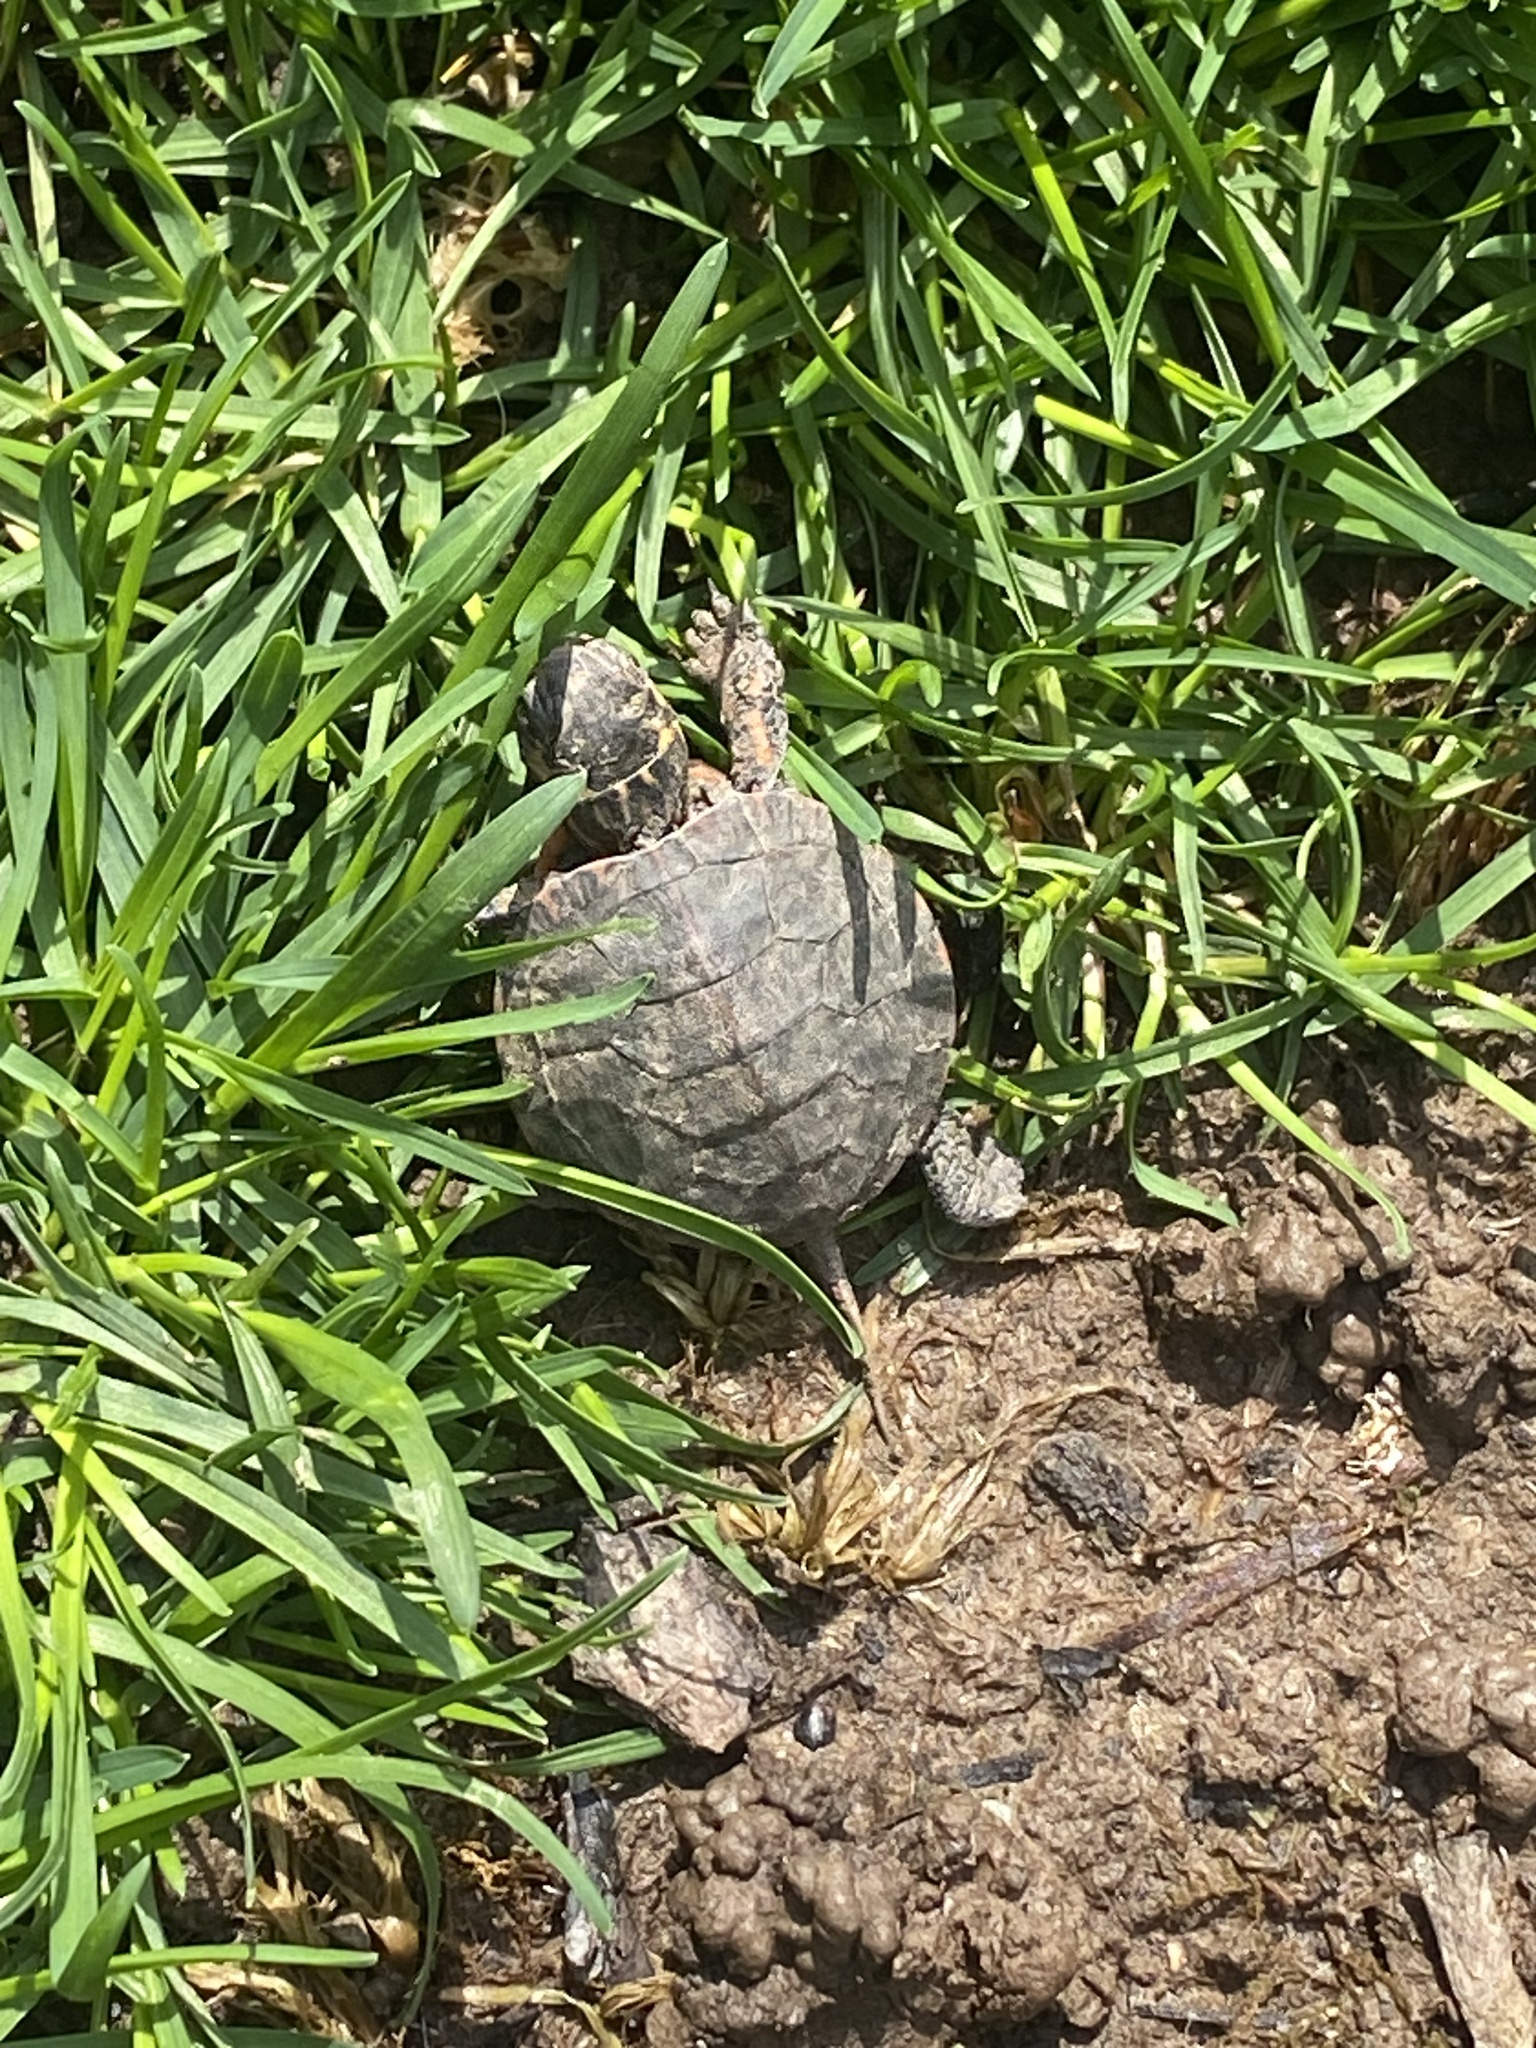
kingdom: Animalia
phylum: Chordata
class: Testudines
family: Emydidae
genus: Chrysemys
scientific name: Chrysemys picta
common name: Painted turtle
